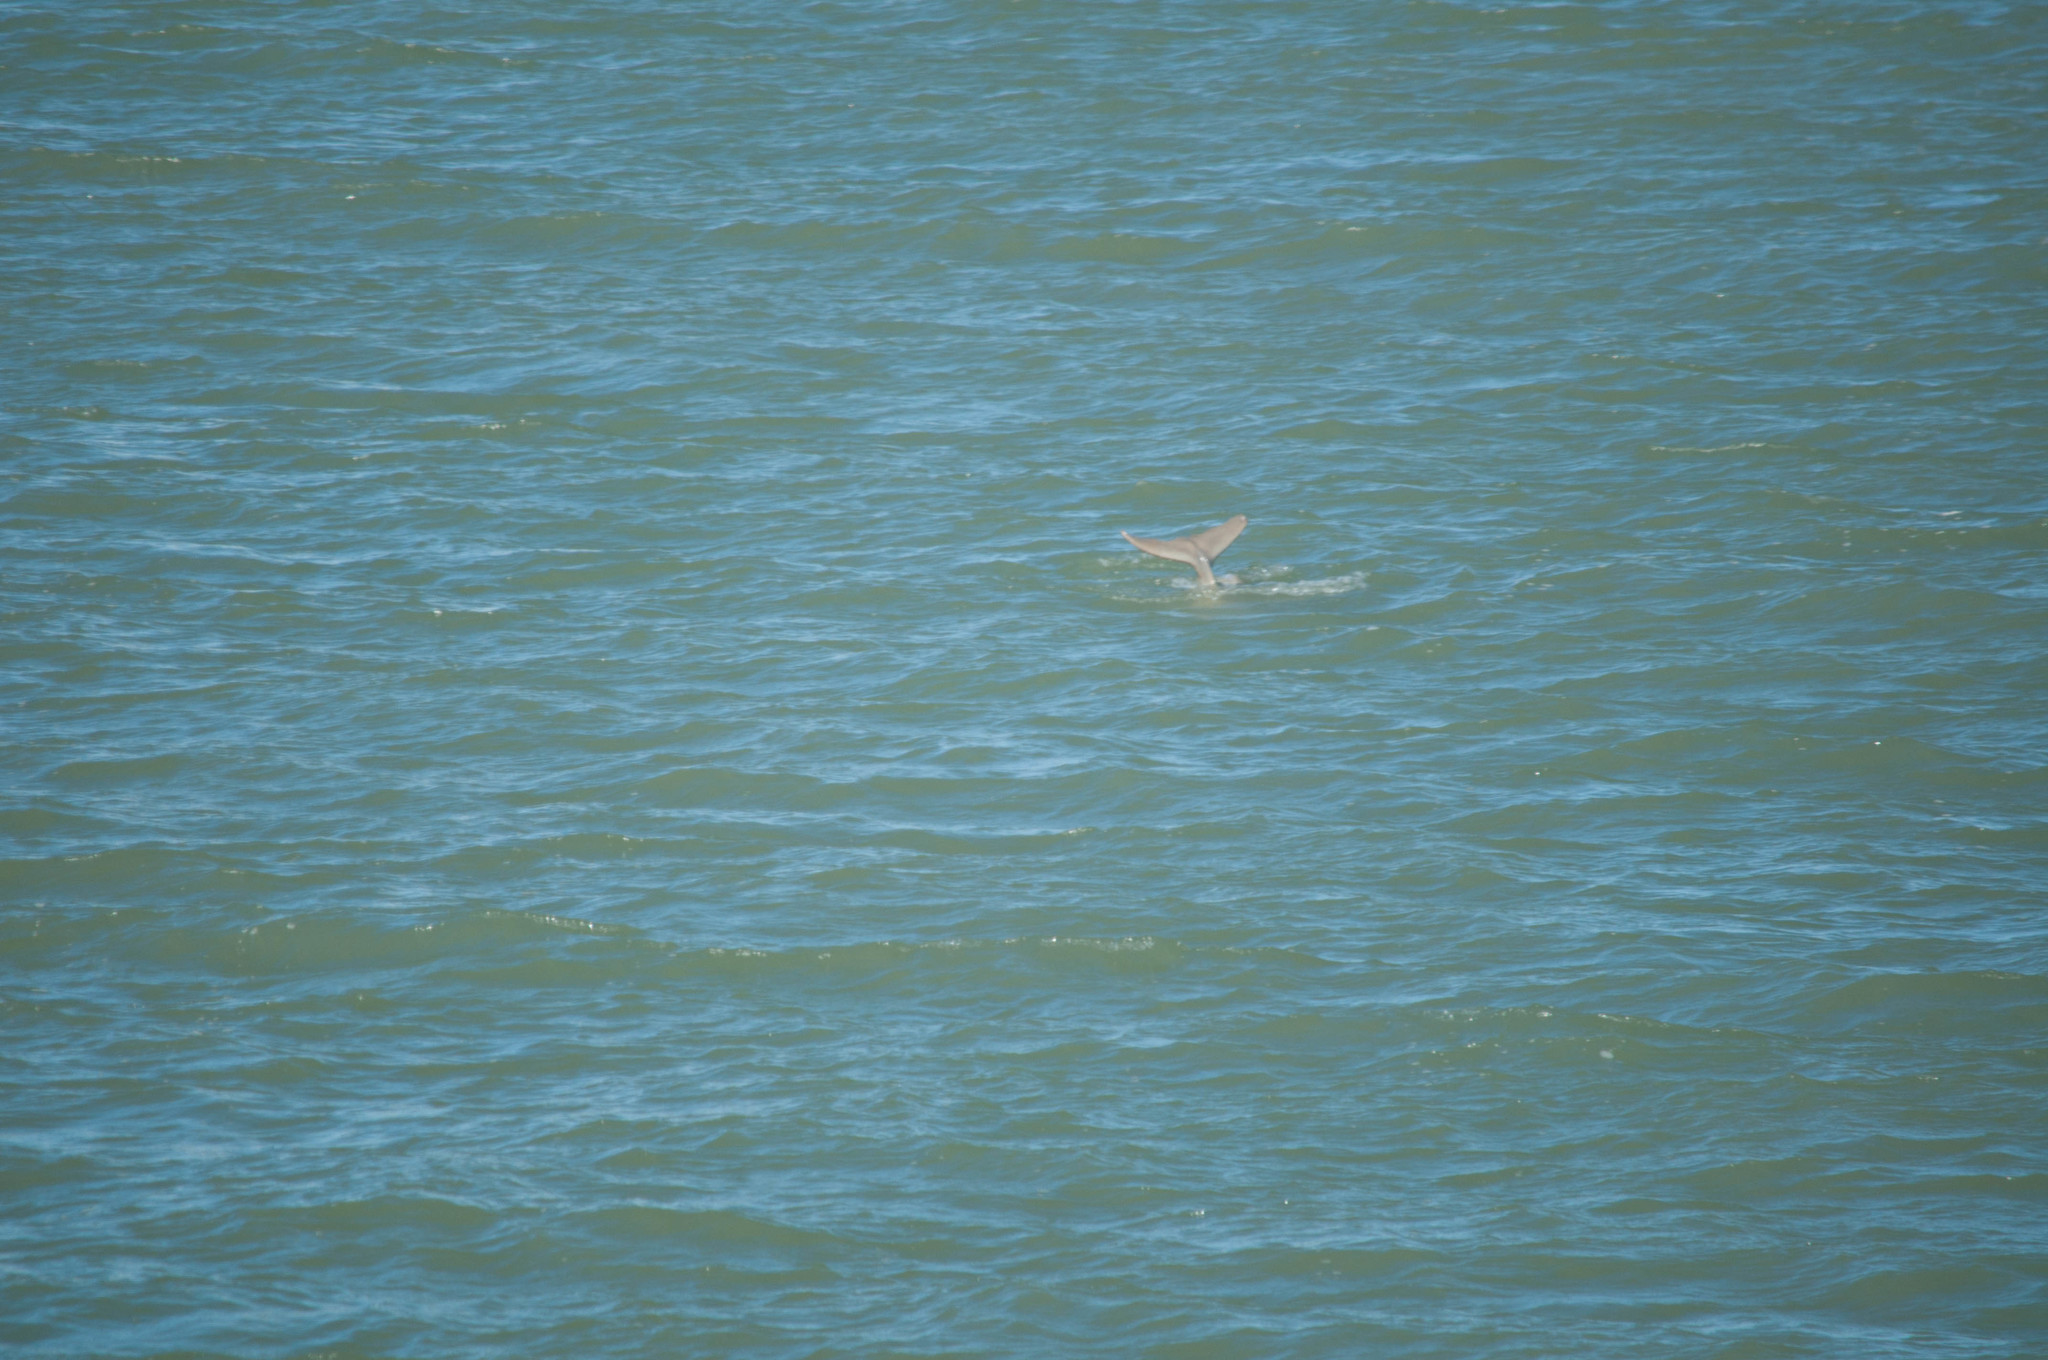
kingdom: Animalia
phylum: Chordata
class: Mammalia
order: Cetacea
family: Delphinidae
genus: Sousa
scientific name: Sousa sahulensis
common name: Australian humpback dolphin
